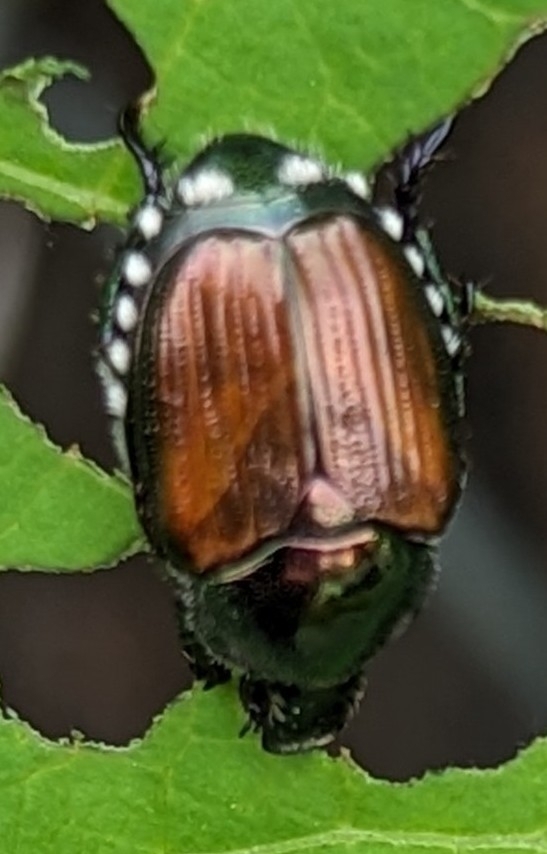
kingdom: Animalia
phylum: Arthropoda
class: Insecta
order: Coleoptera
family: Scarabaeidae
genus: Popillia
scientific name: Popillia japonica
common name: Japanese beetle
